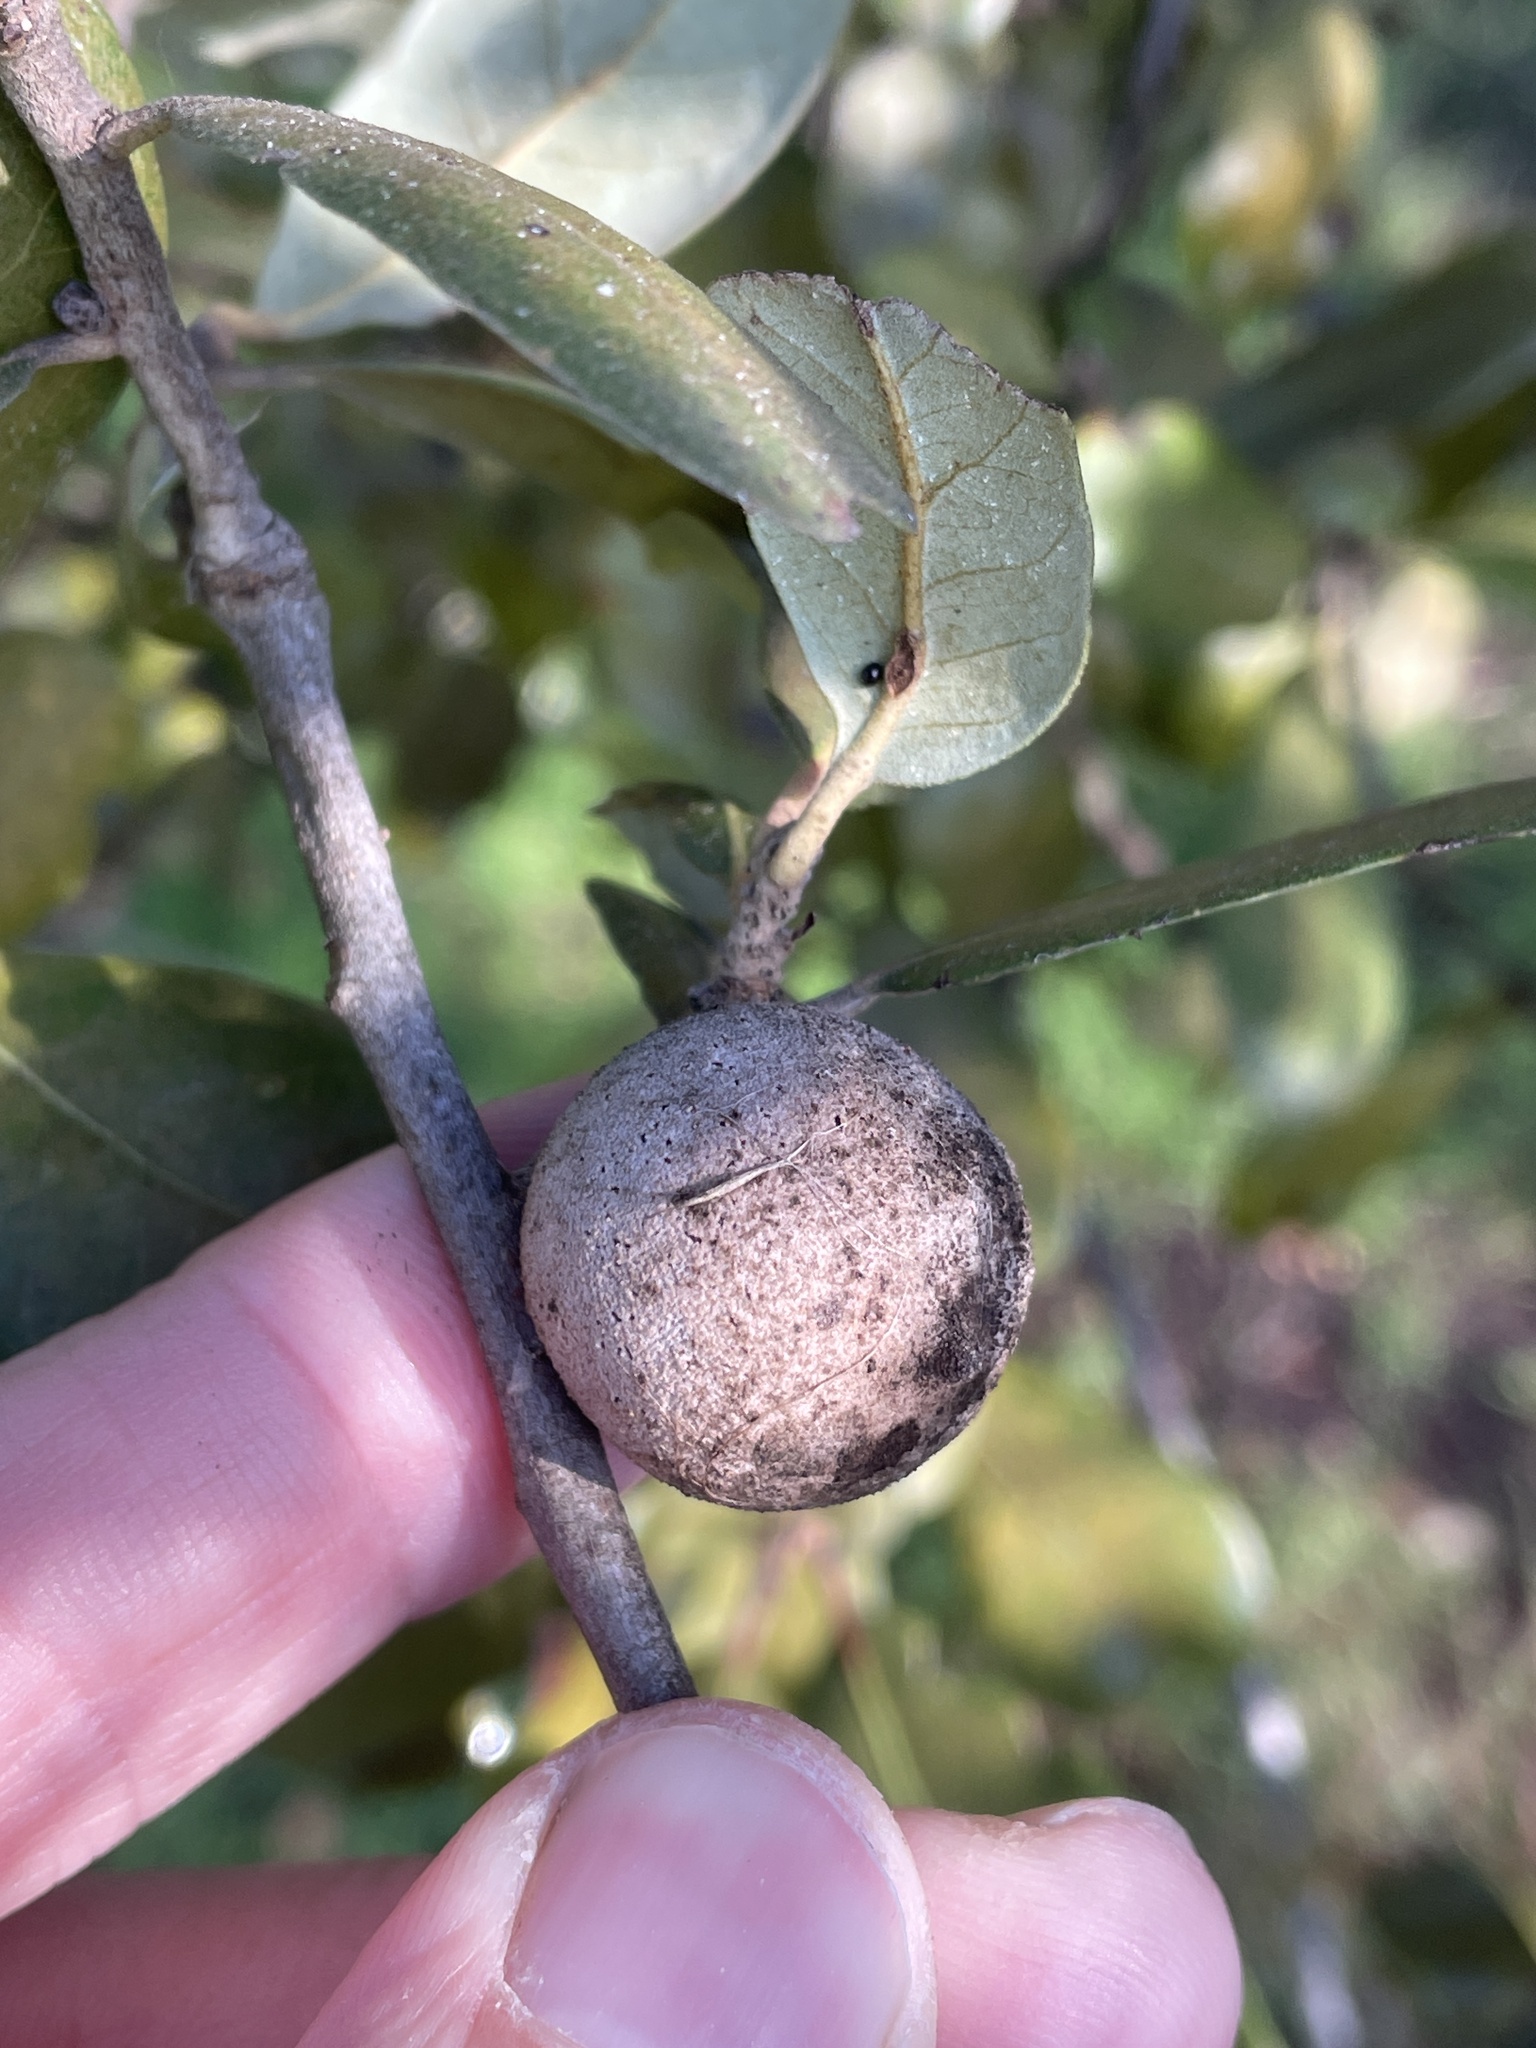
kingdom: Animalia
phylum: Arthropoda
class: Insecta
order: Hymenoptera
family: Cynipidae
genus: Disholcaspis
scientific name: Disholcaspis
